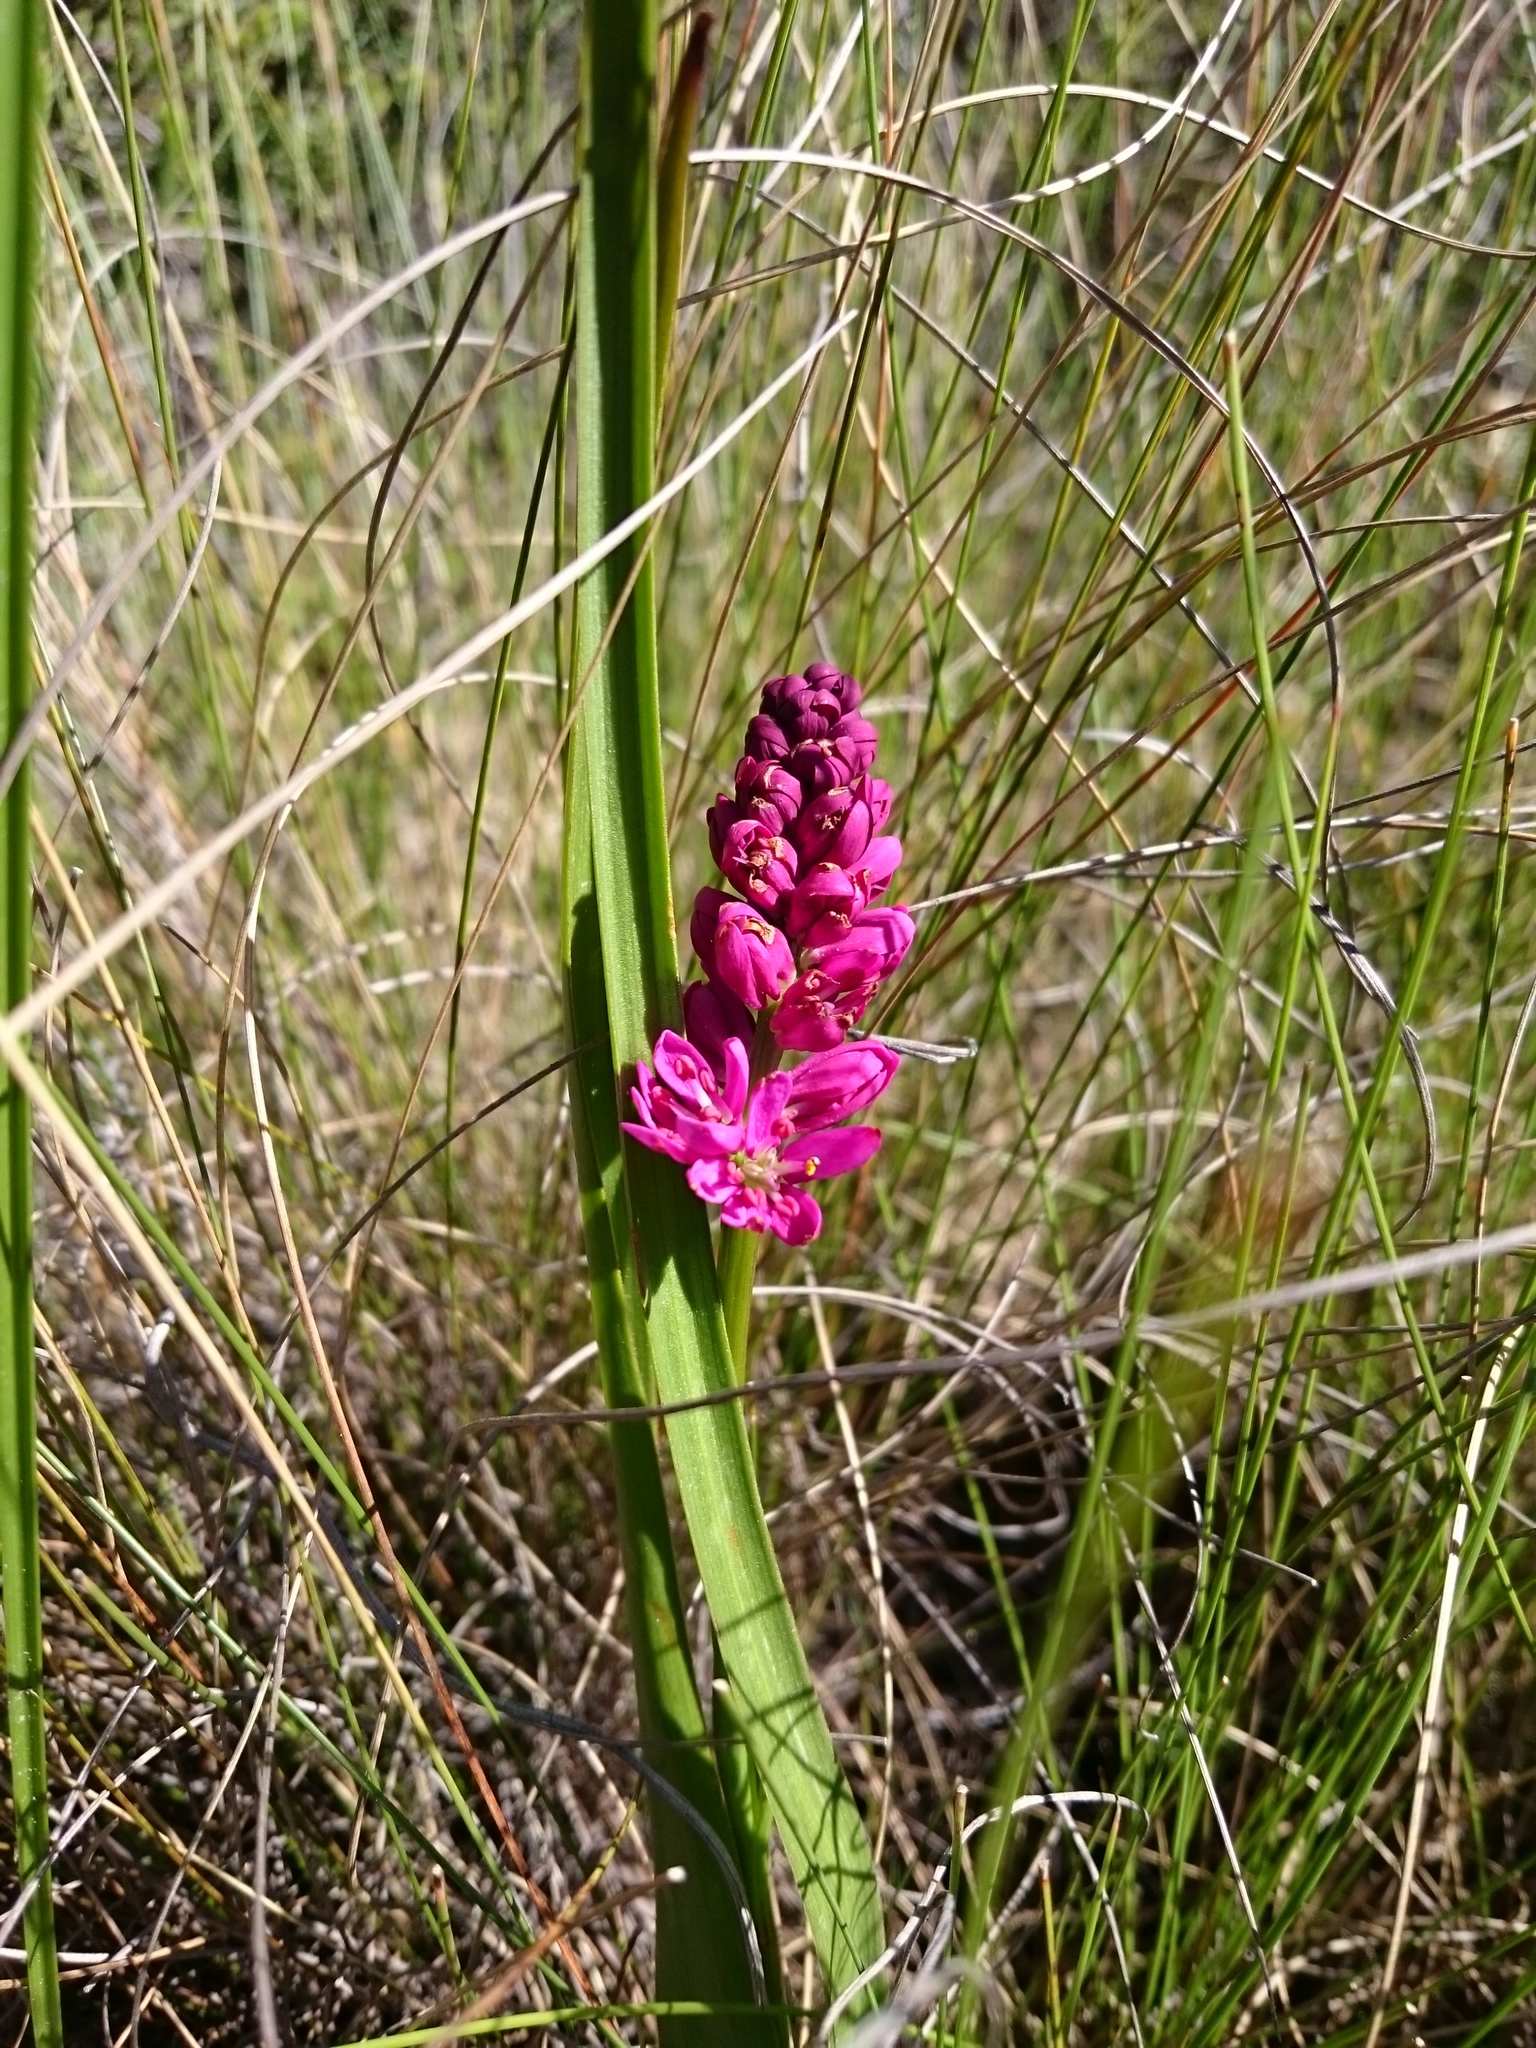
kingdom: Plantae
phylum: Tracheophyta
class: Liliopsida
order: Liliales
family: Colchicaceae
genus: Wurmbea
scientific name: Wurmbea punctata
